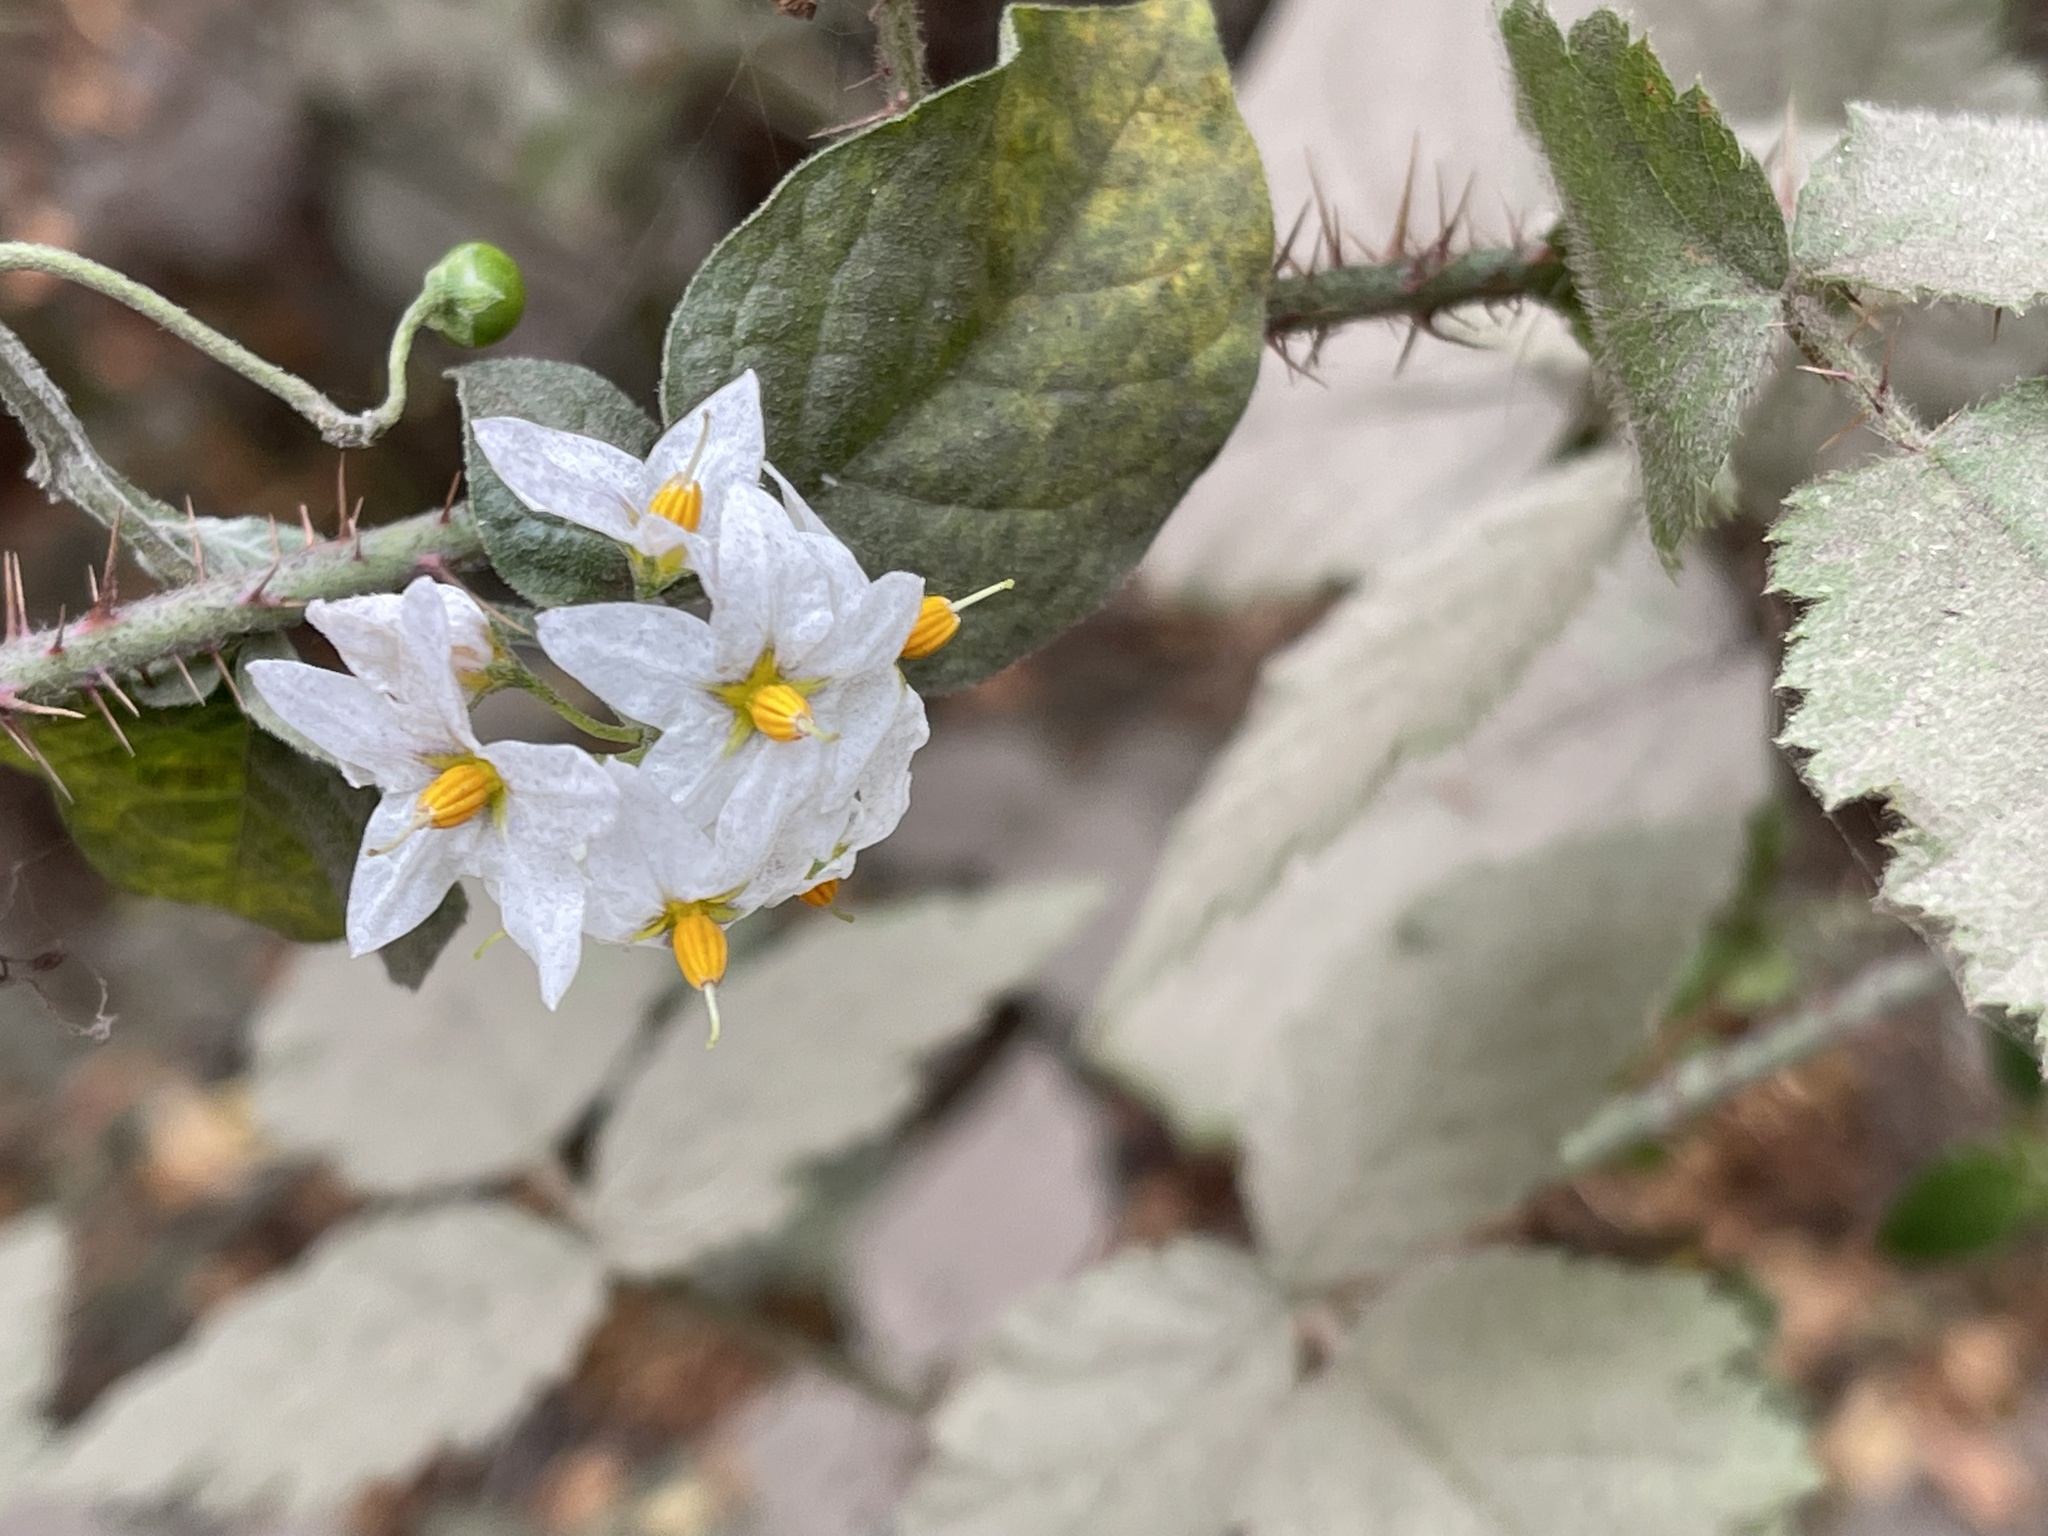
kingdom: Plantae
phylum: Tracheophyta
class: Magnoliopsida
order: Solanales
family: Solanaceae
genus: Solanum
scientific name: Solanum douglasii
